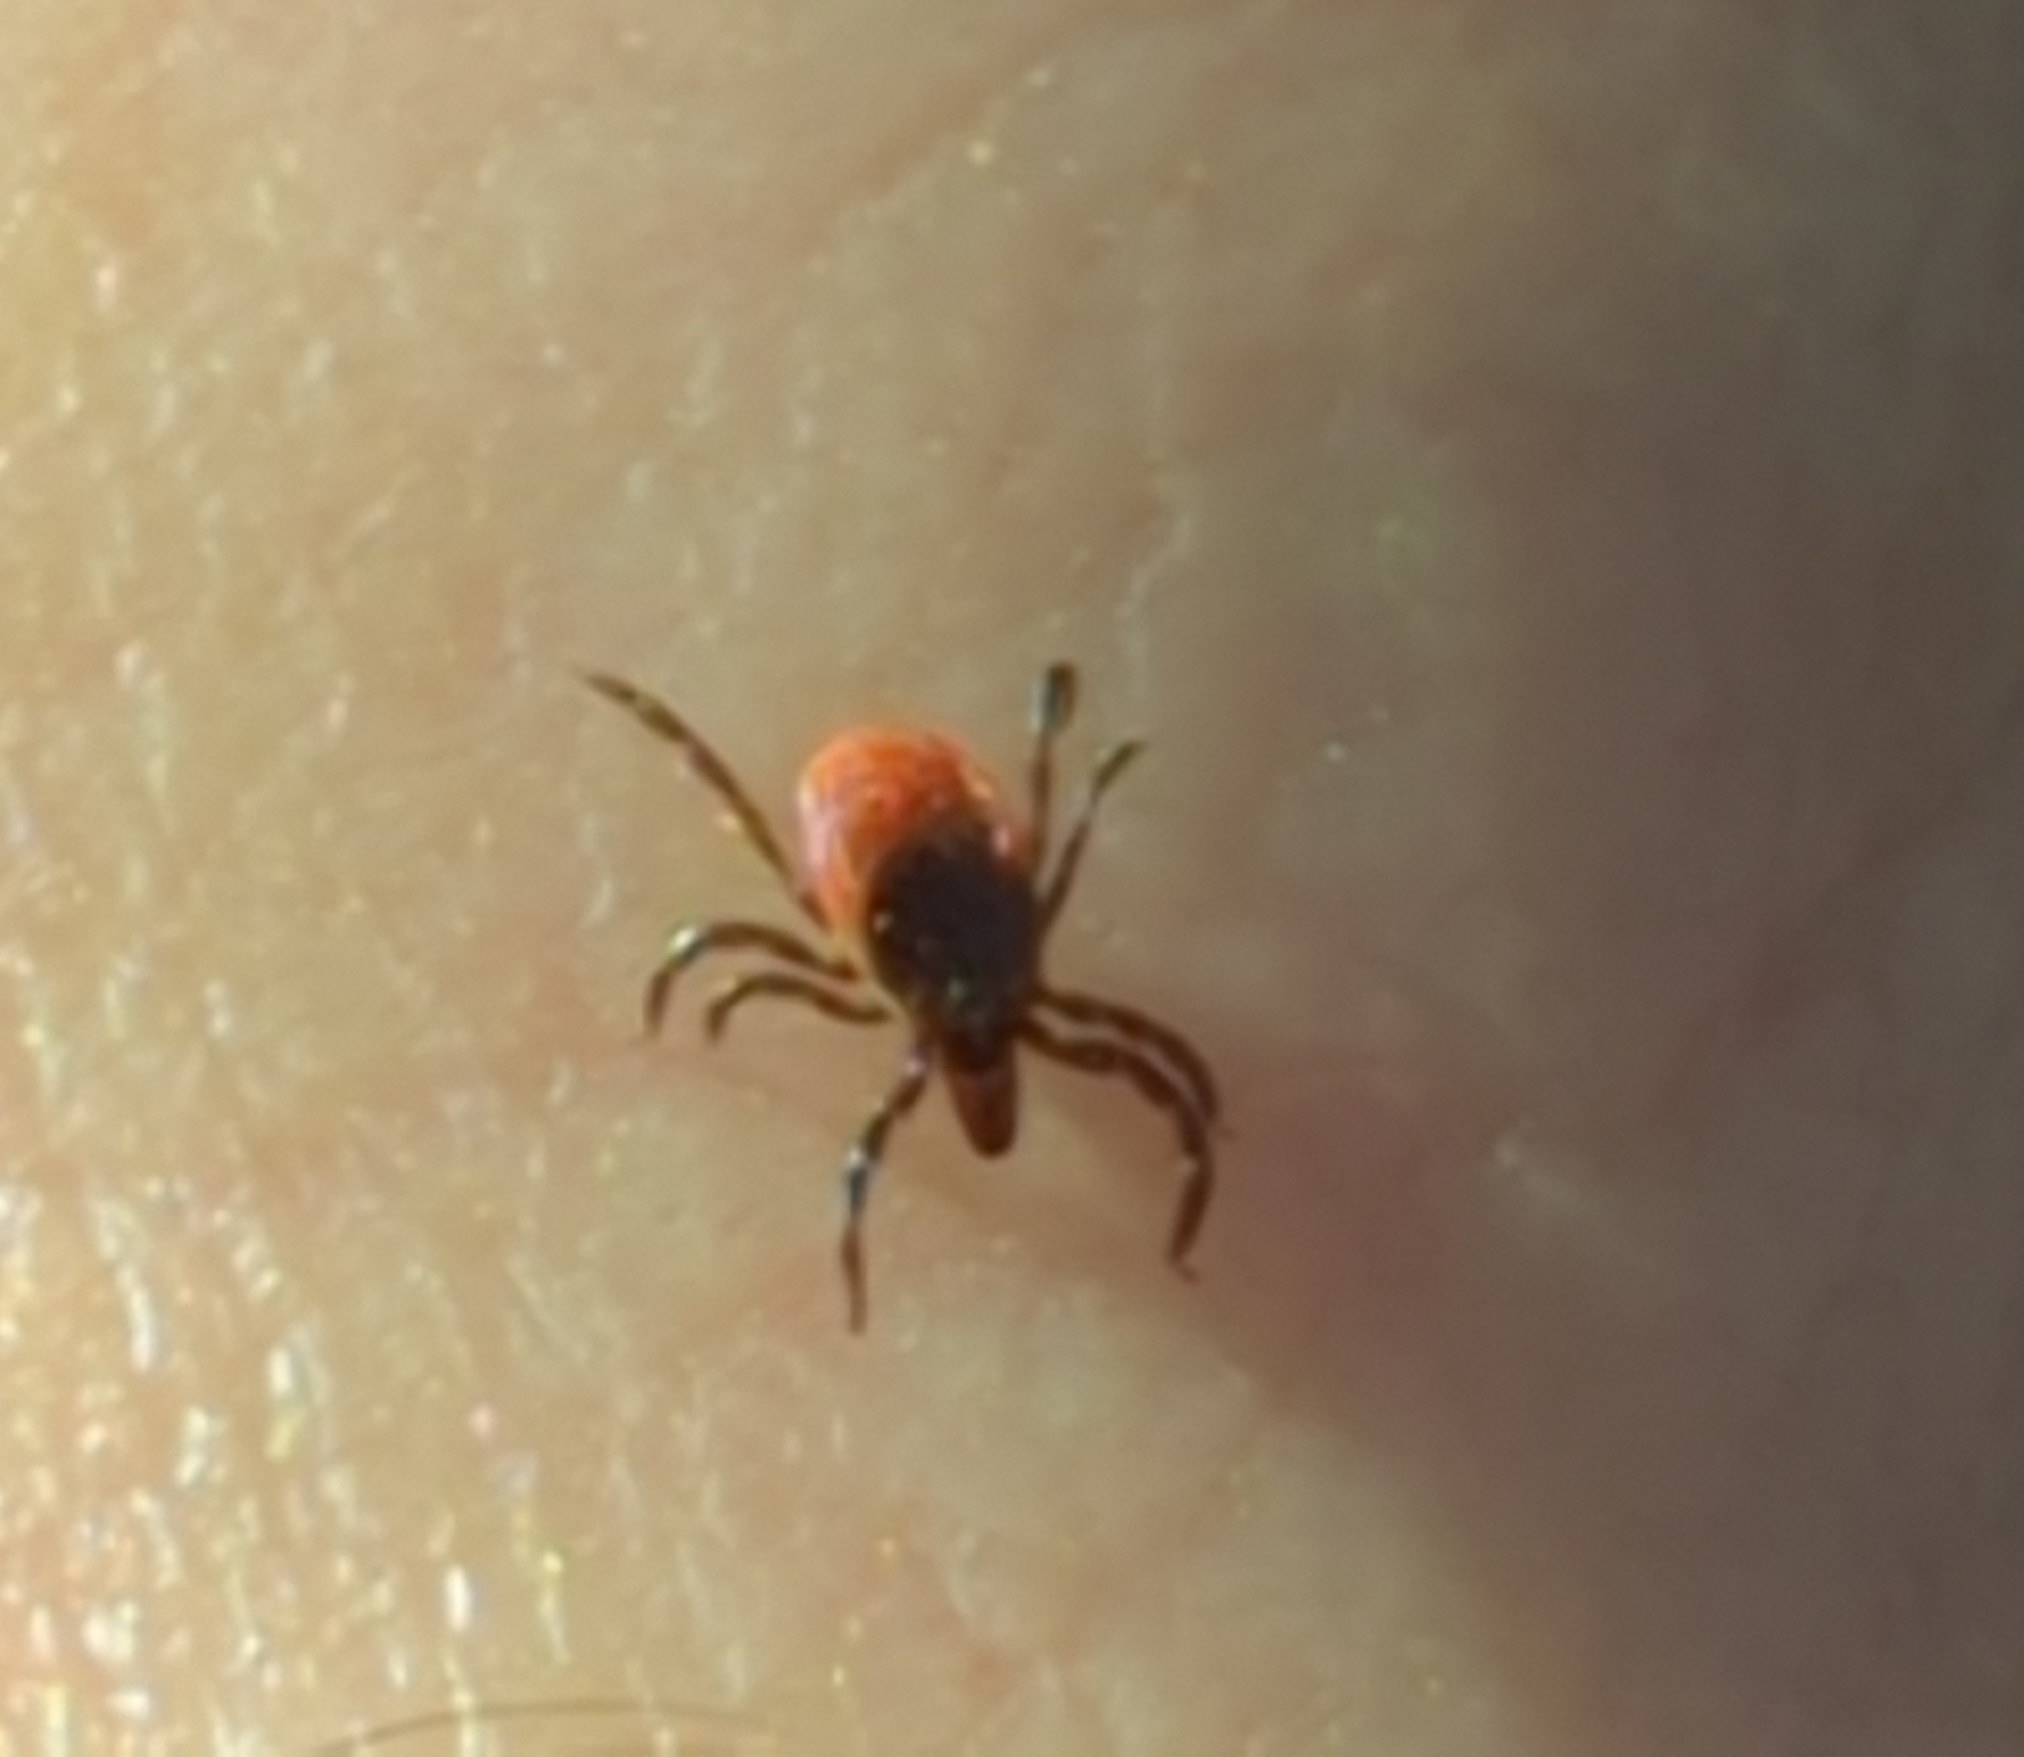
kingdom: Animalia
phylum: Arthropoda
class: Arachnida
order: Ixodida
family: Ixodidae
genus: Ixodes
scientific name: Ixodes scapularis
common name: Black legged tick
